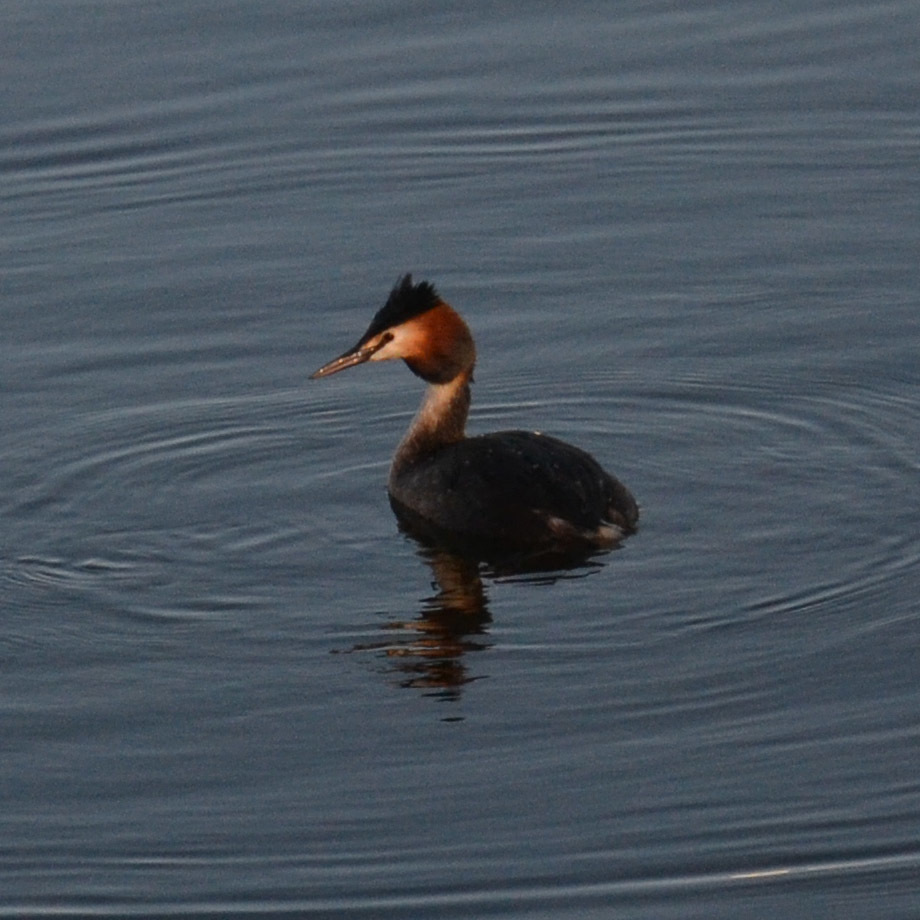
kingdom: Animalia
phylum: Chordata
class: Aves
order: Podicipediformes
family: Podicipedidae
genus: Podiceps
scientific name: Podiceps cristatus
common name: Great crested grebe
